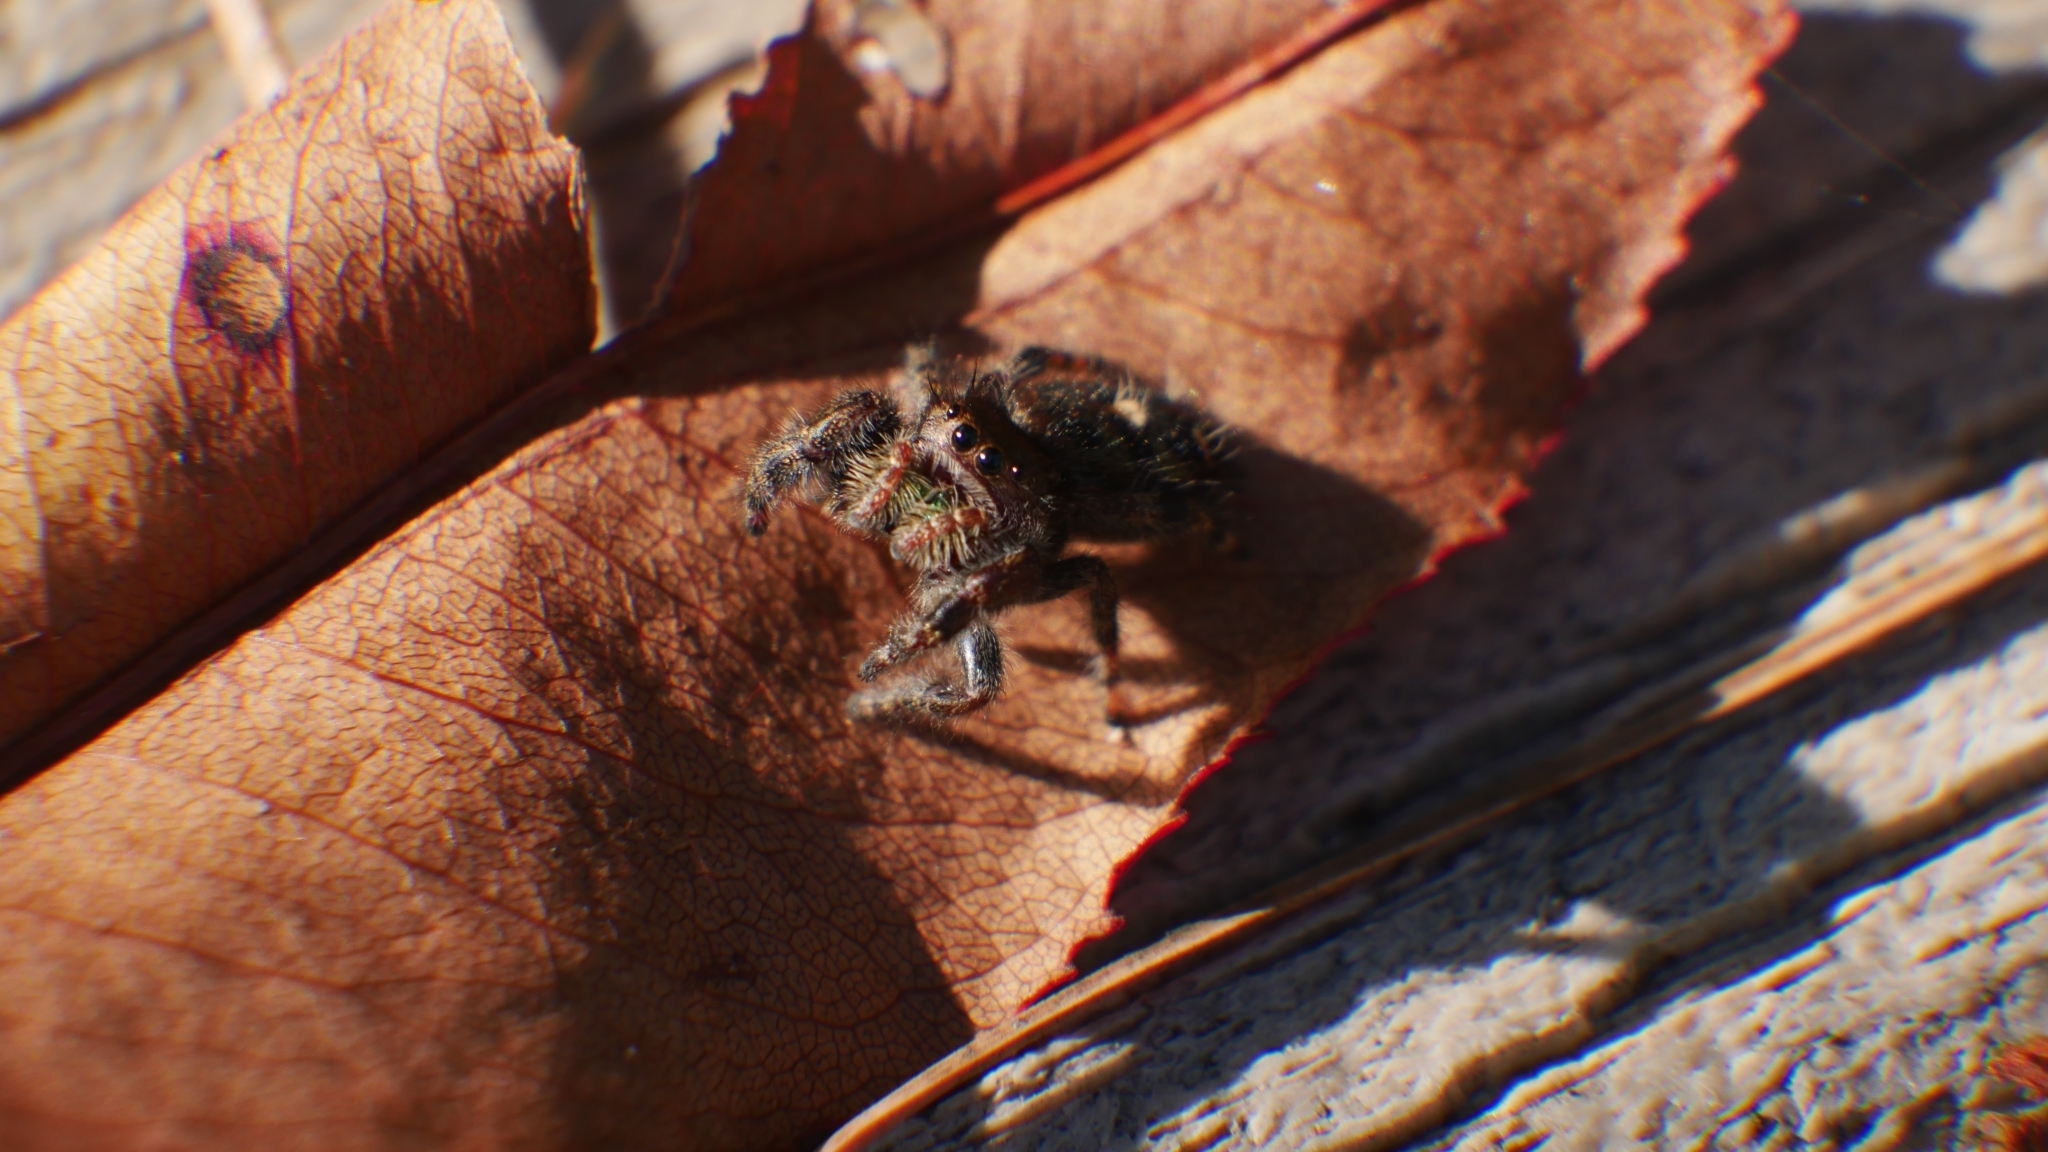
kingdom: Animalia
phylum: Arthropoda
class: Arachnida
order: Araneae
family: Salticidae
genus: Phidippus
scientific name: Phidippus audax
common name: Bold jumper
